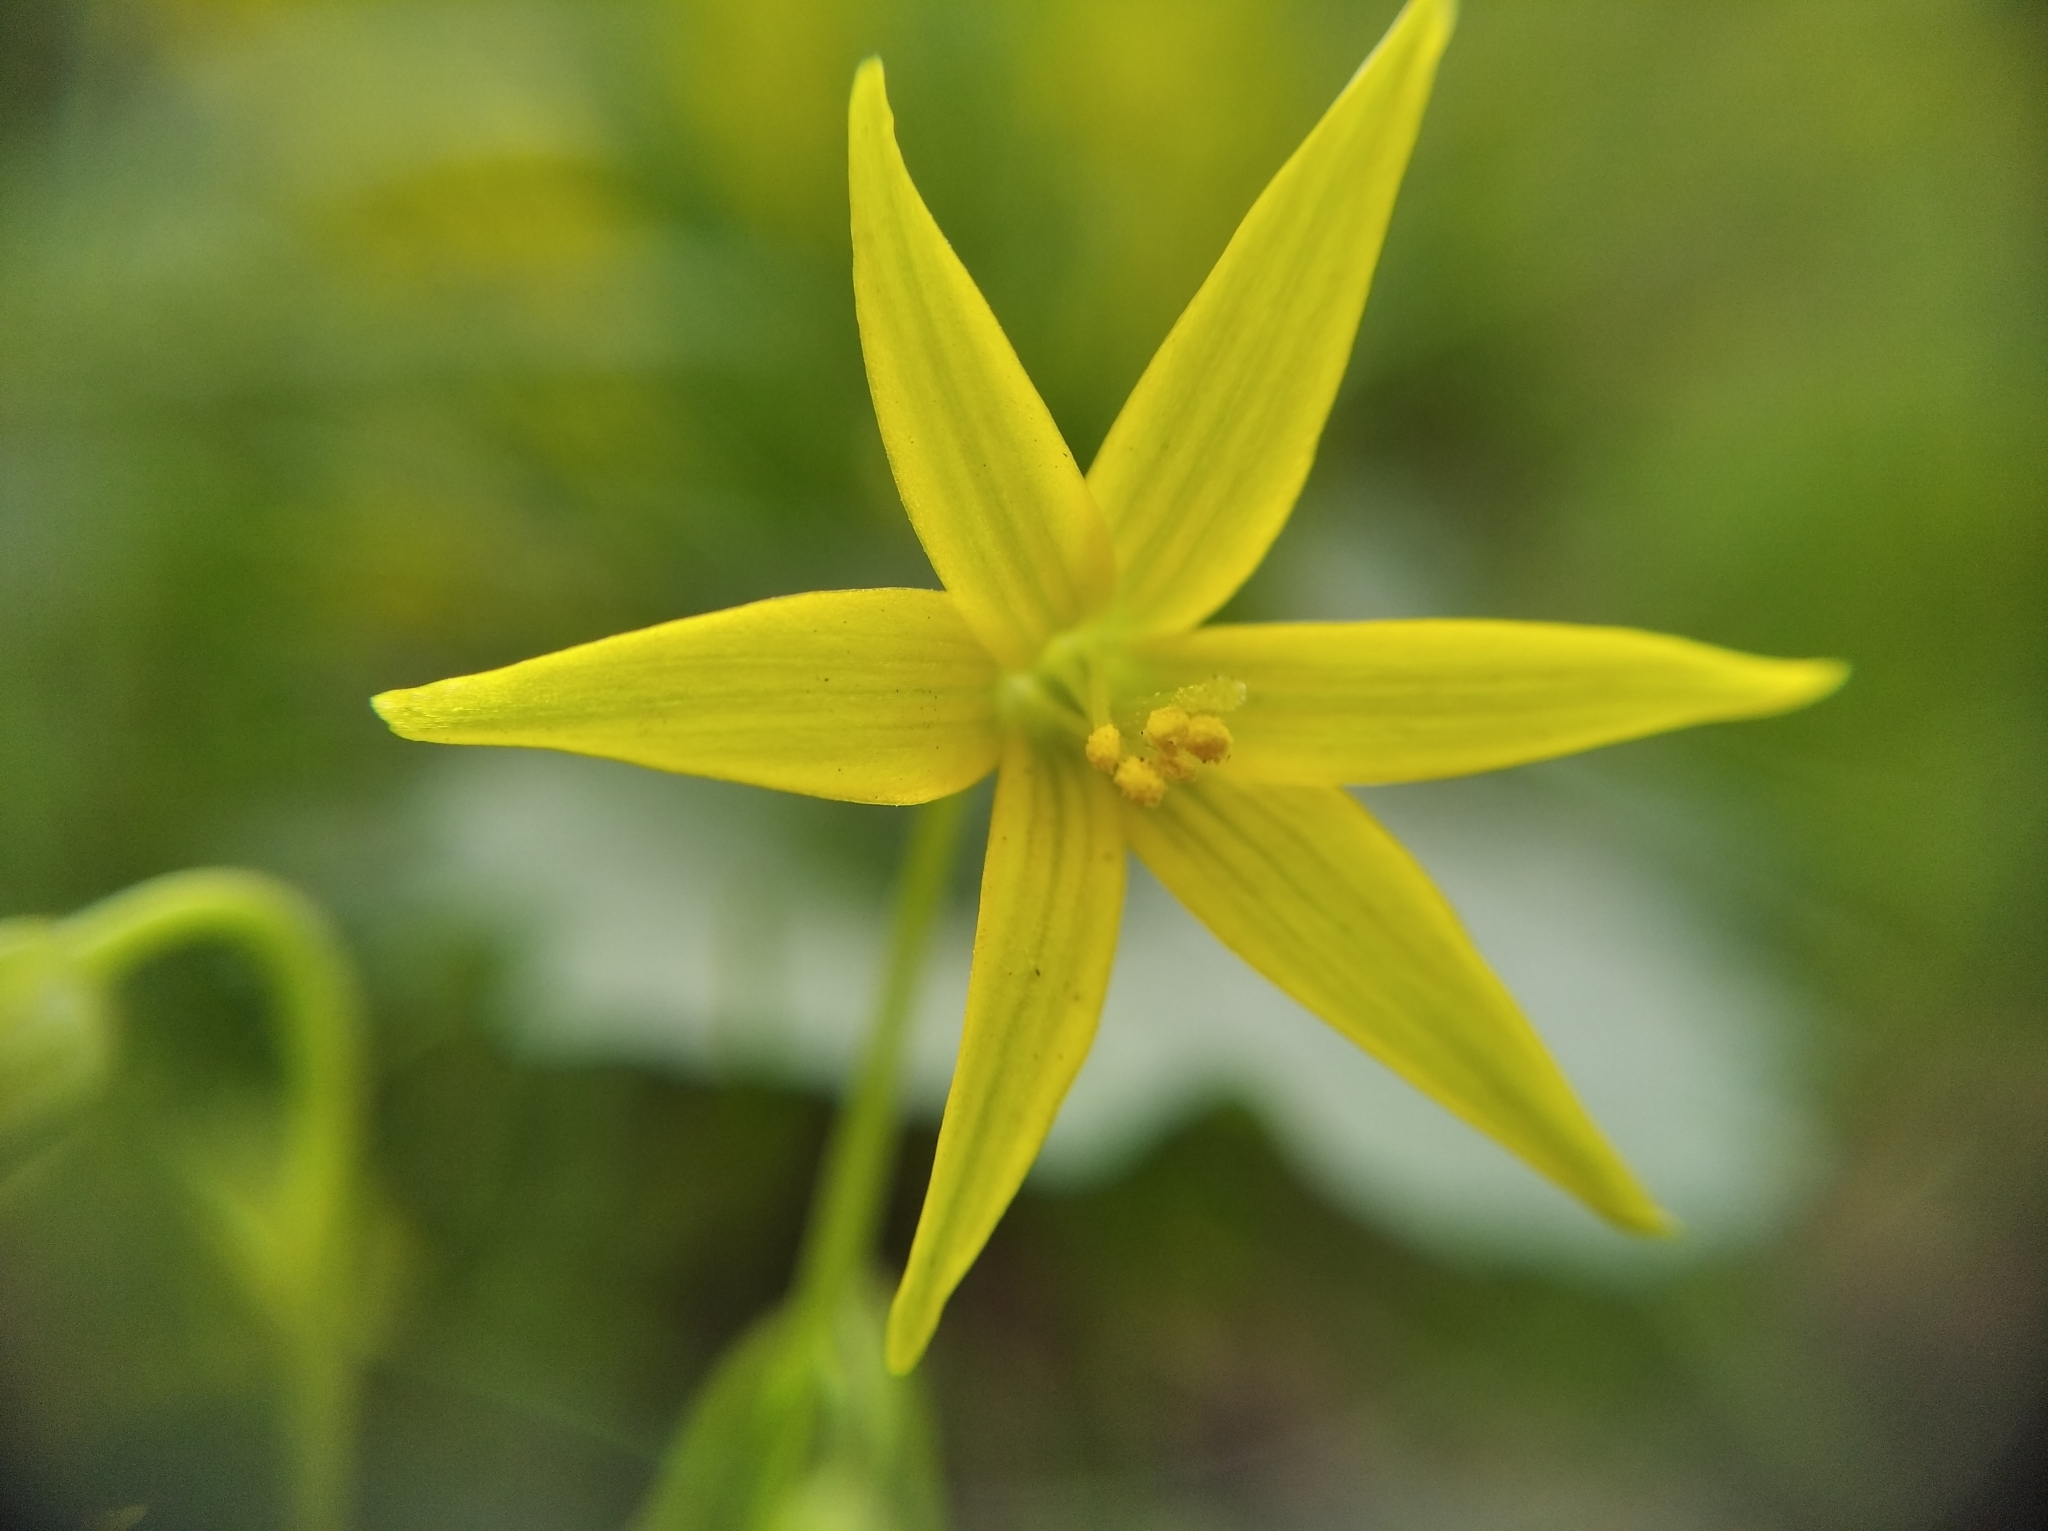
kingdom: Plantae
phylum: Tracheophyta
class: Liliopsida
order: Liliales
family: Liliaceae
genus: Gagea
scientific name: Gagea minima
